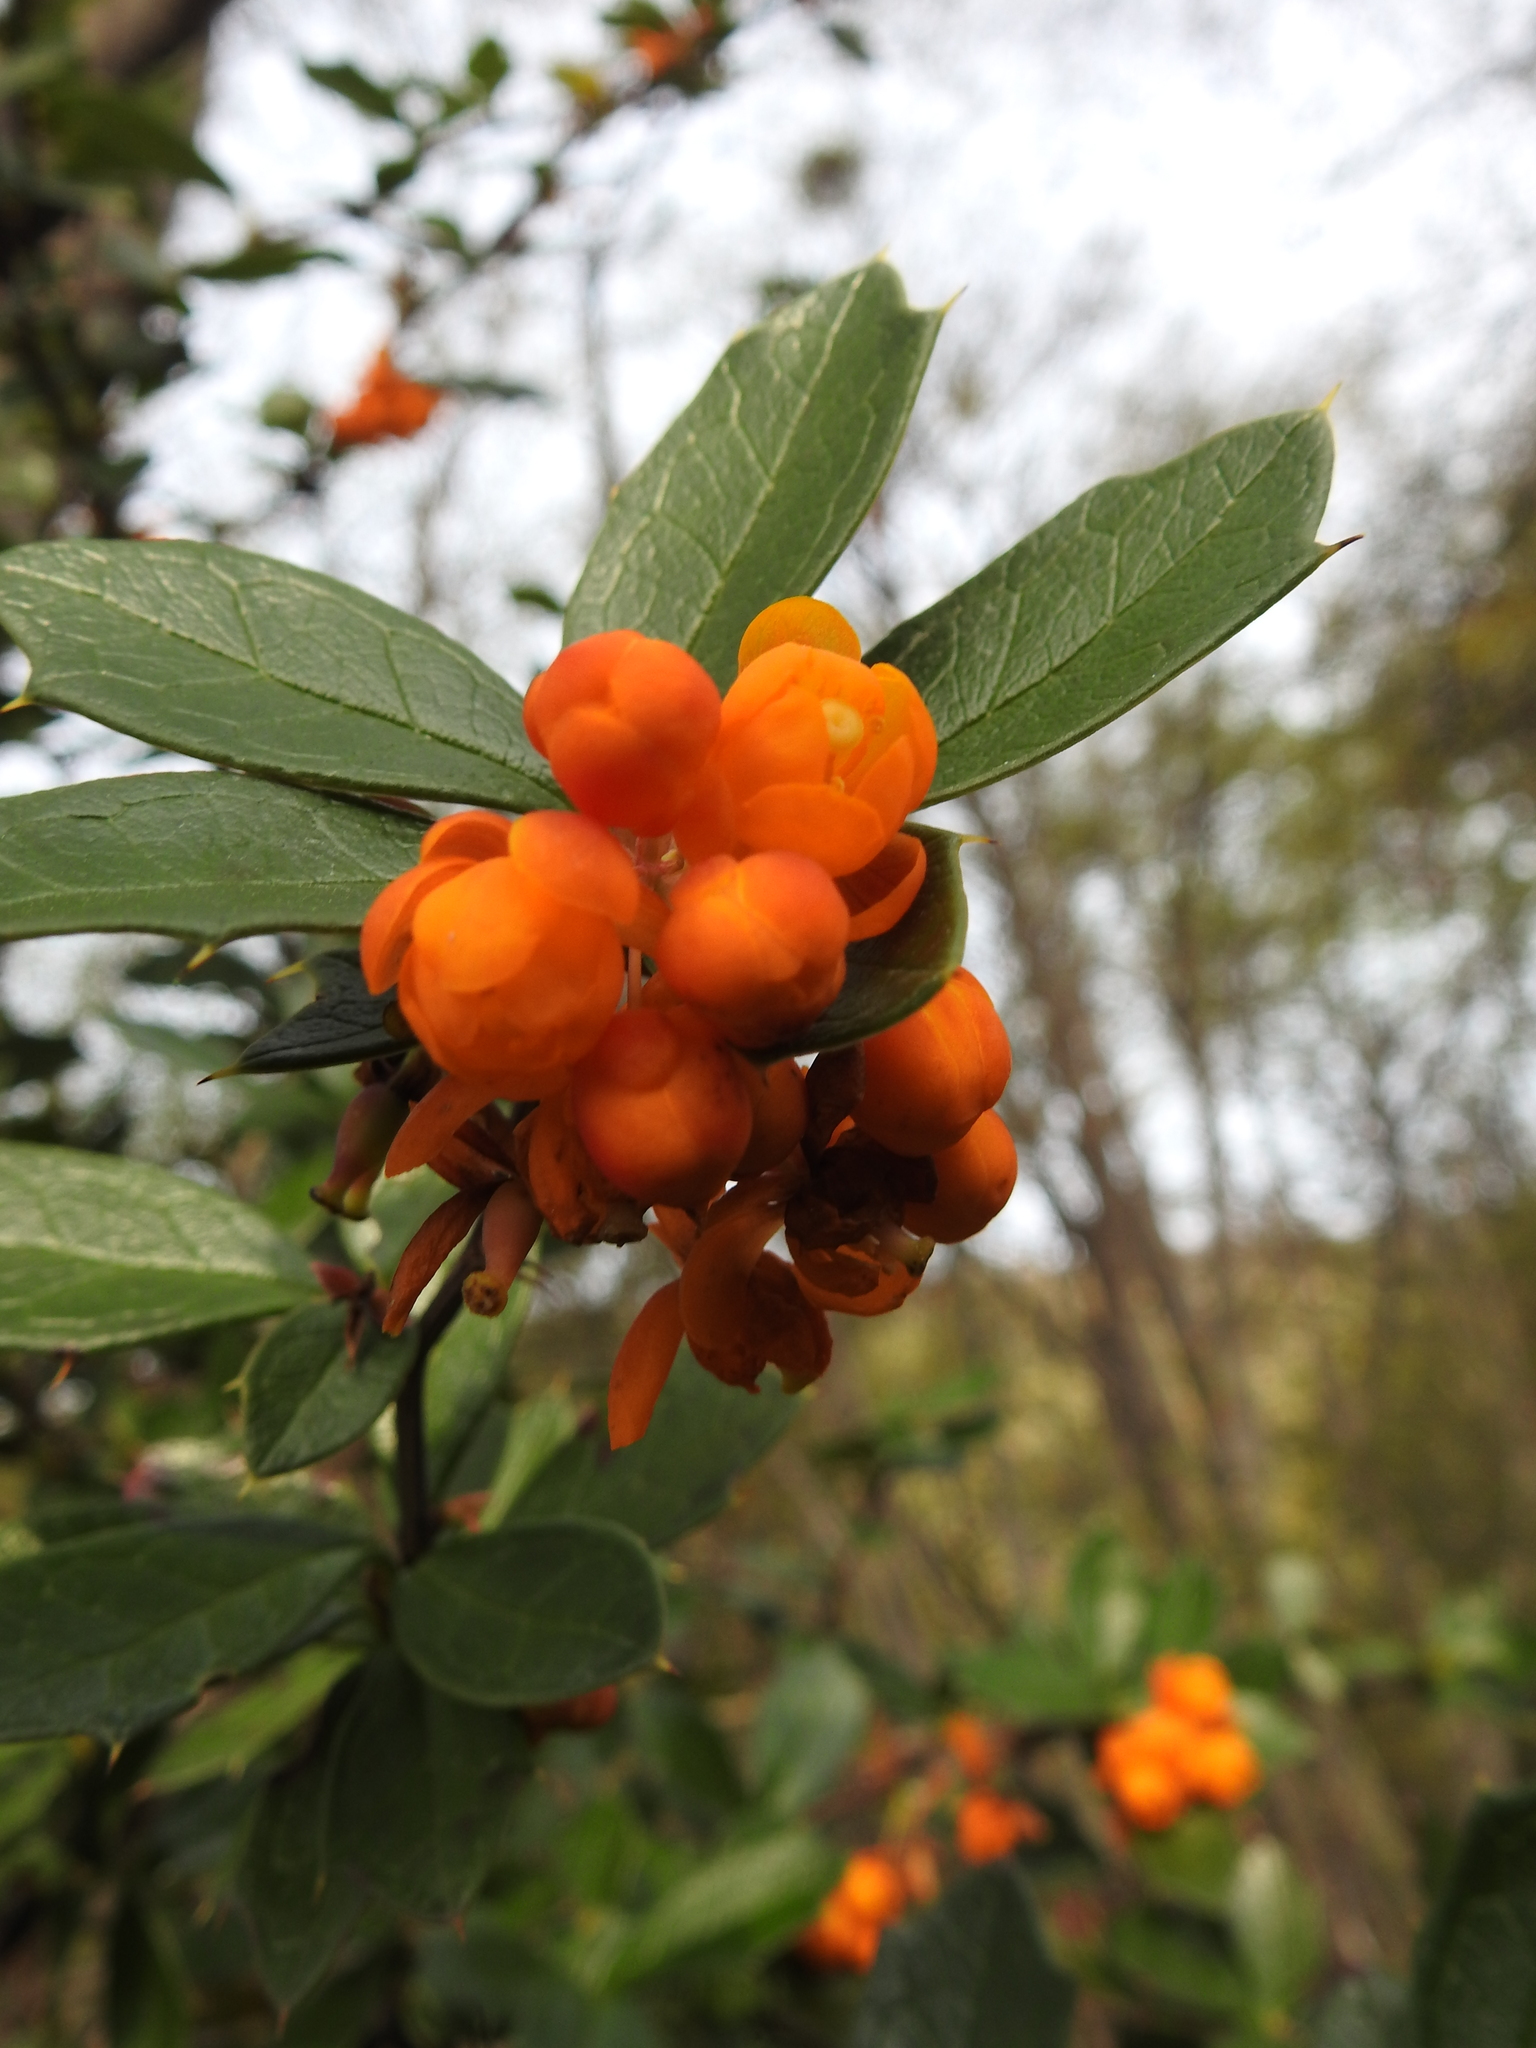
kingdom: Plantae
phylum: Tracheophyta
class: Magnoliopsida
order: Ranunculales
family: Berberidaceae
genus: Berberis
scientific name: Berberis ilicifolia
